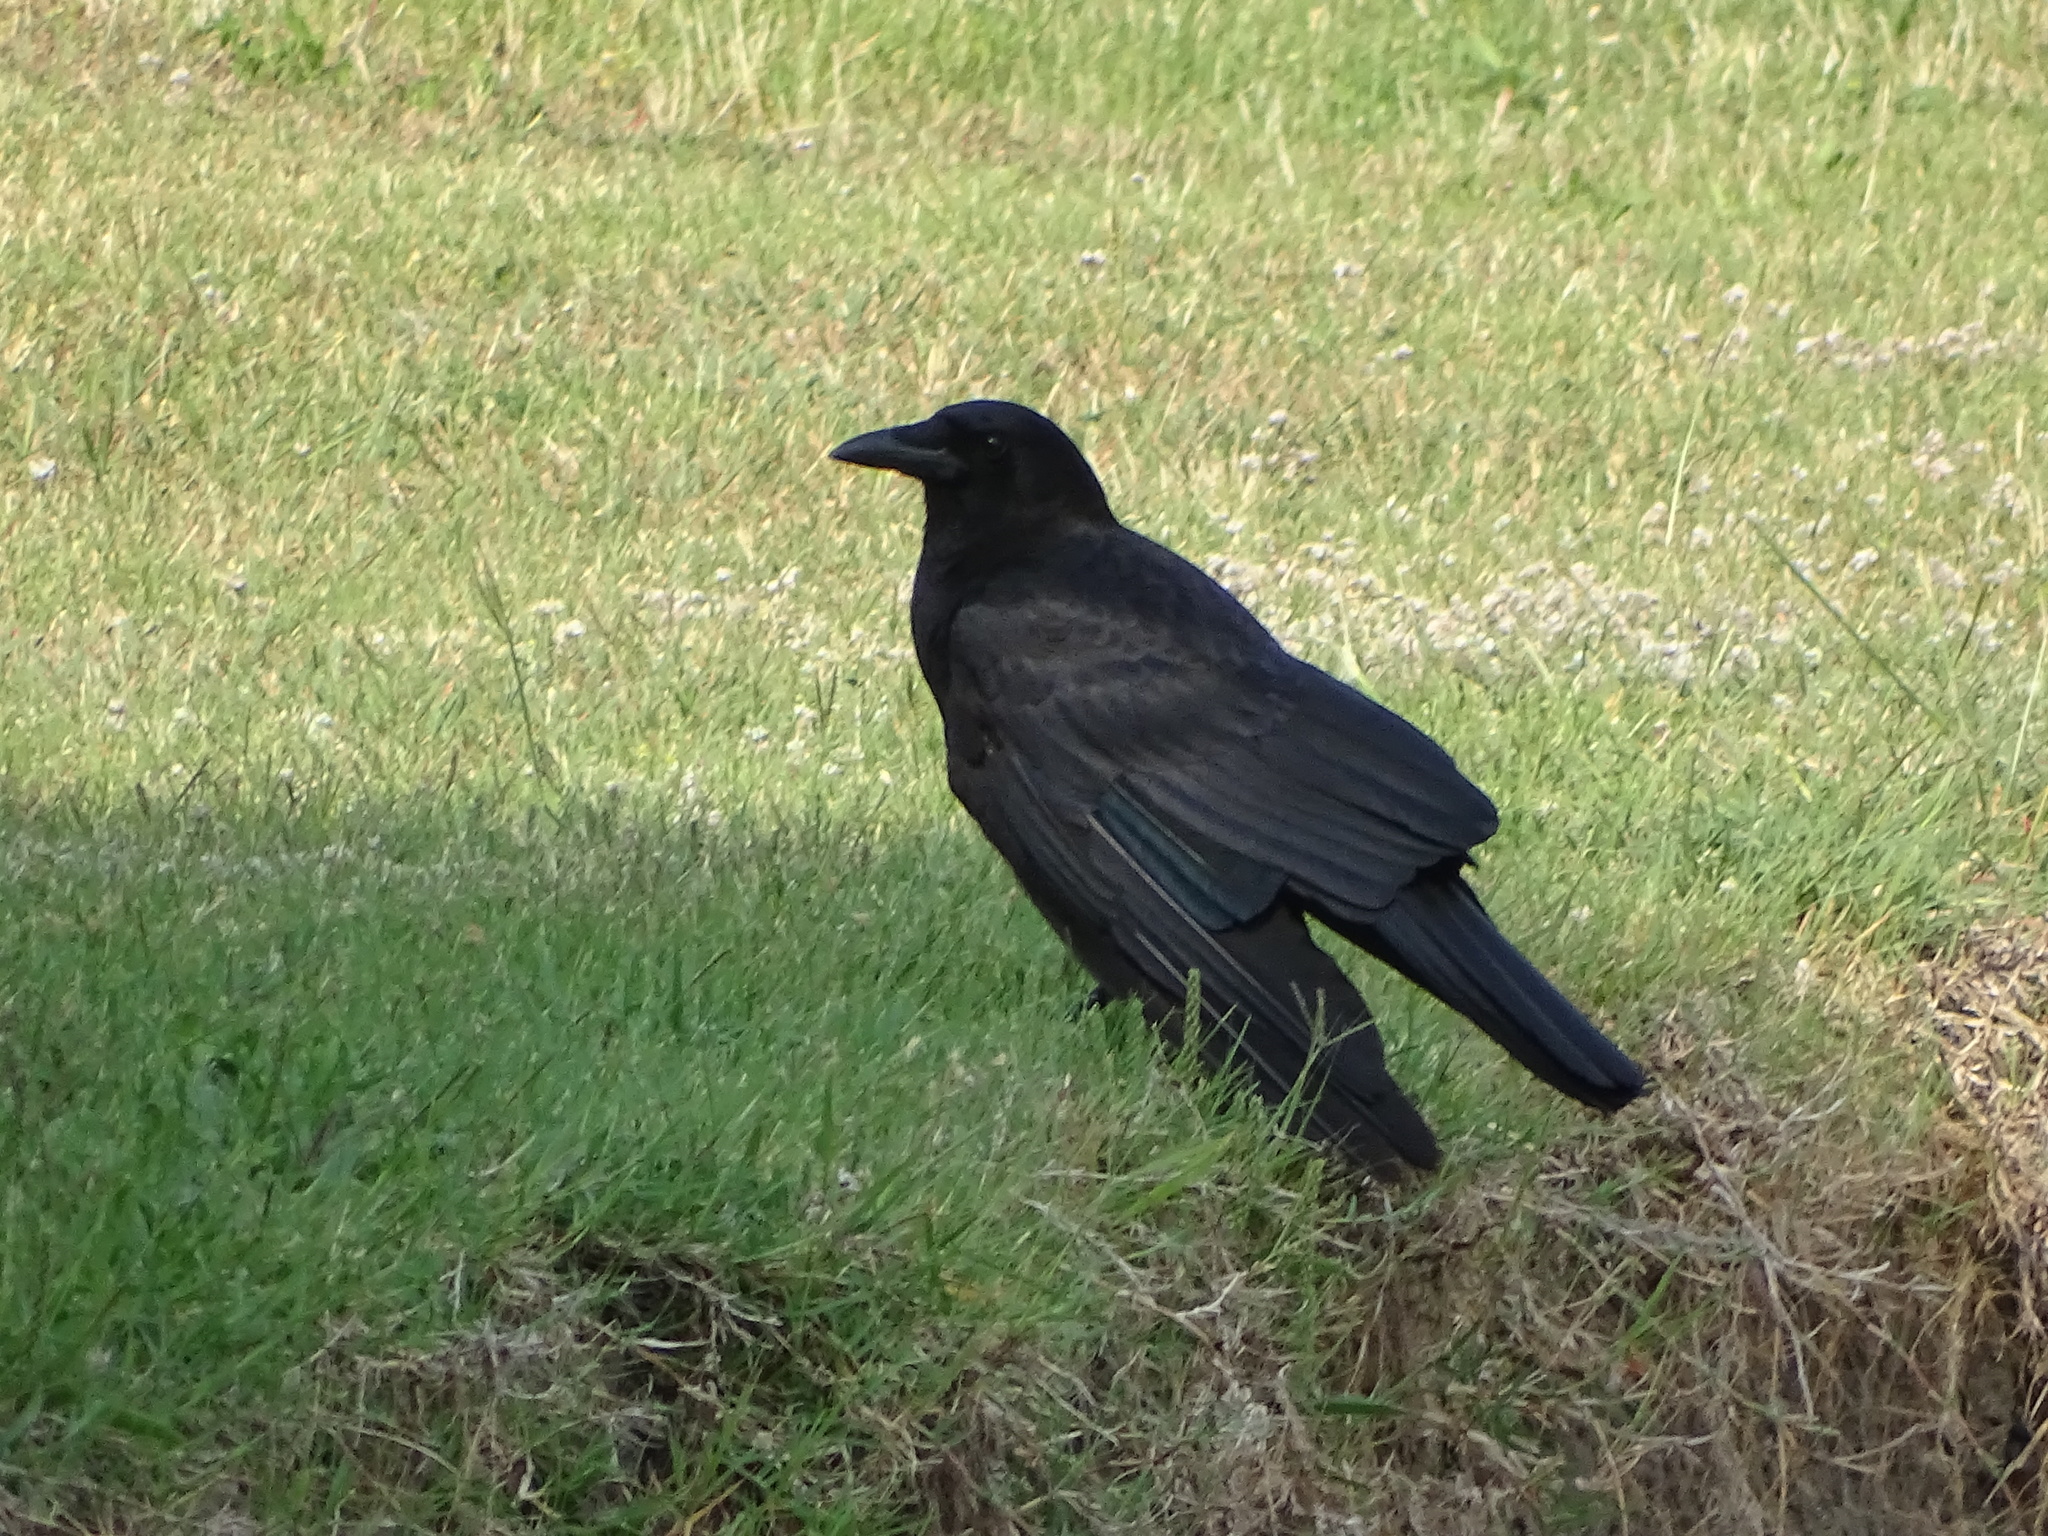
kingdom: Animalia
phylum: Chordata
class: Aves
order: Passeriformes
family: Corvidae
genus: Corvus
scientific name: Corvus brachyrhynchos
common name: American crow
